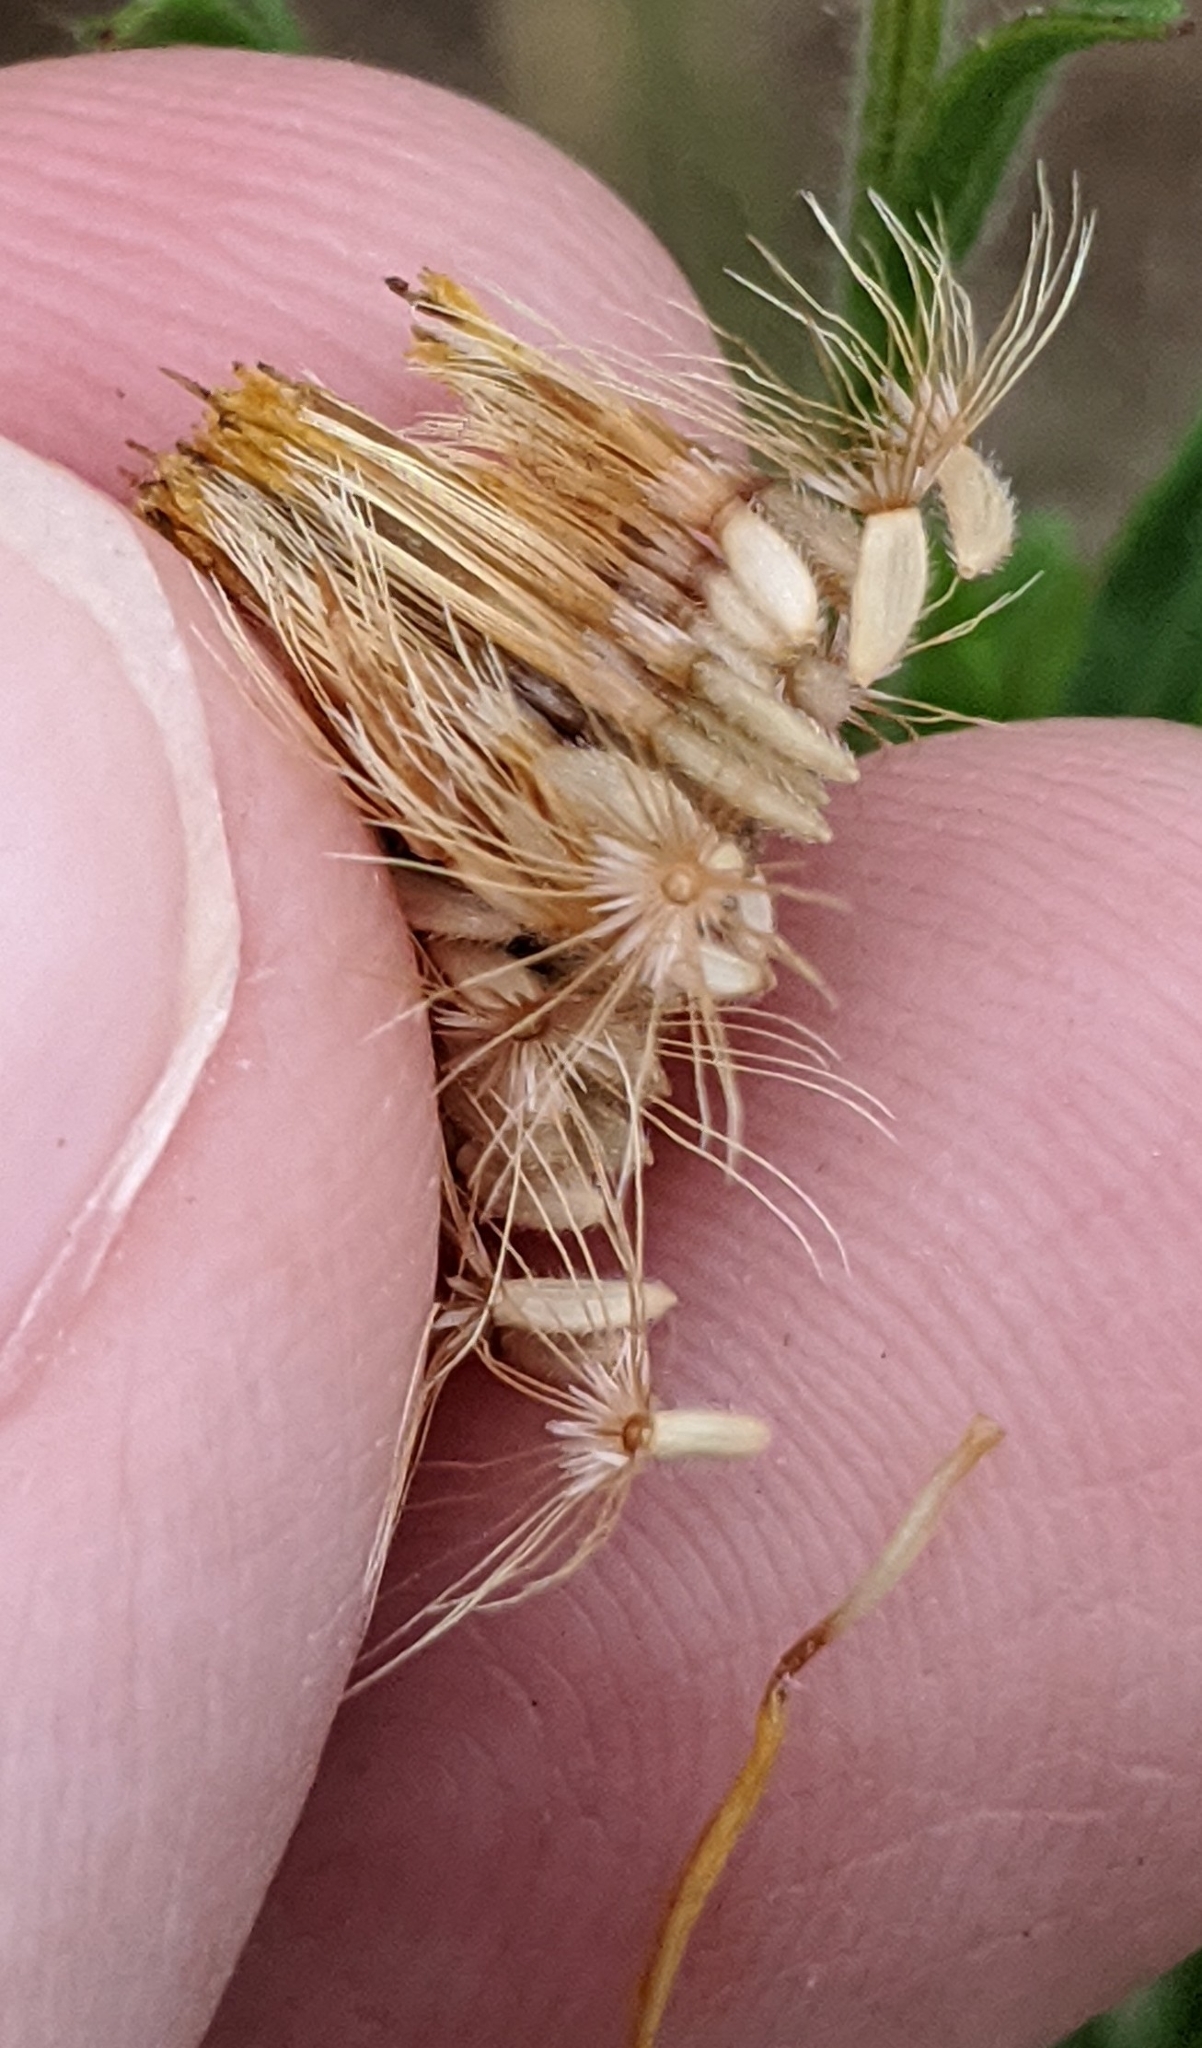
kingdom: Plantae
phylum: Tracheophyta
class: Magnoliopsida
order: Asterales
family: Asteraceae
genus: Bradburia
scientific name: Bradburia pilosa
